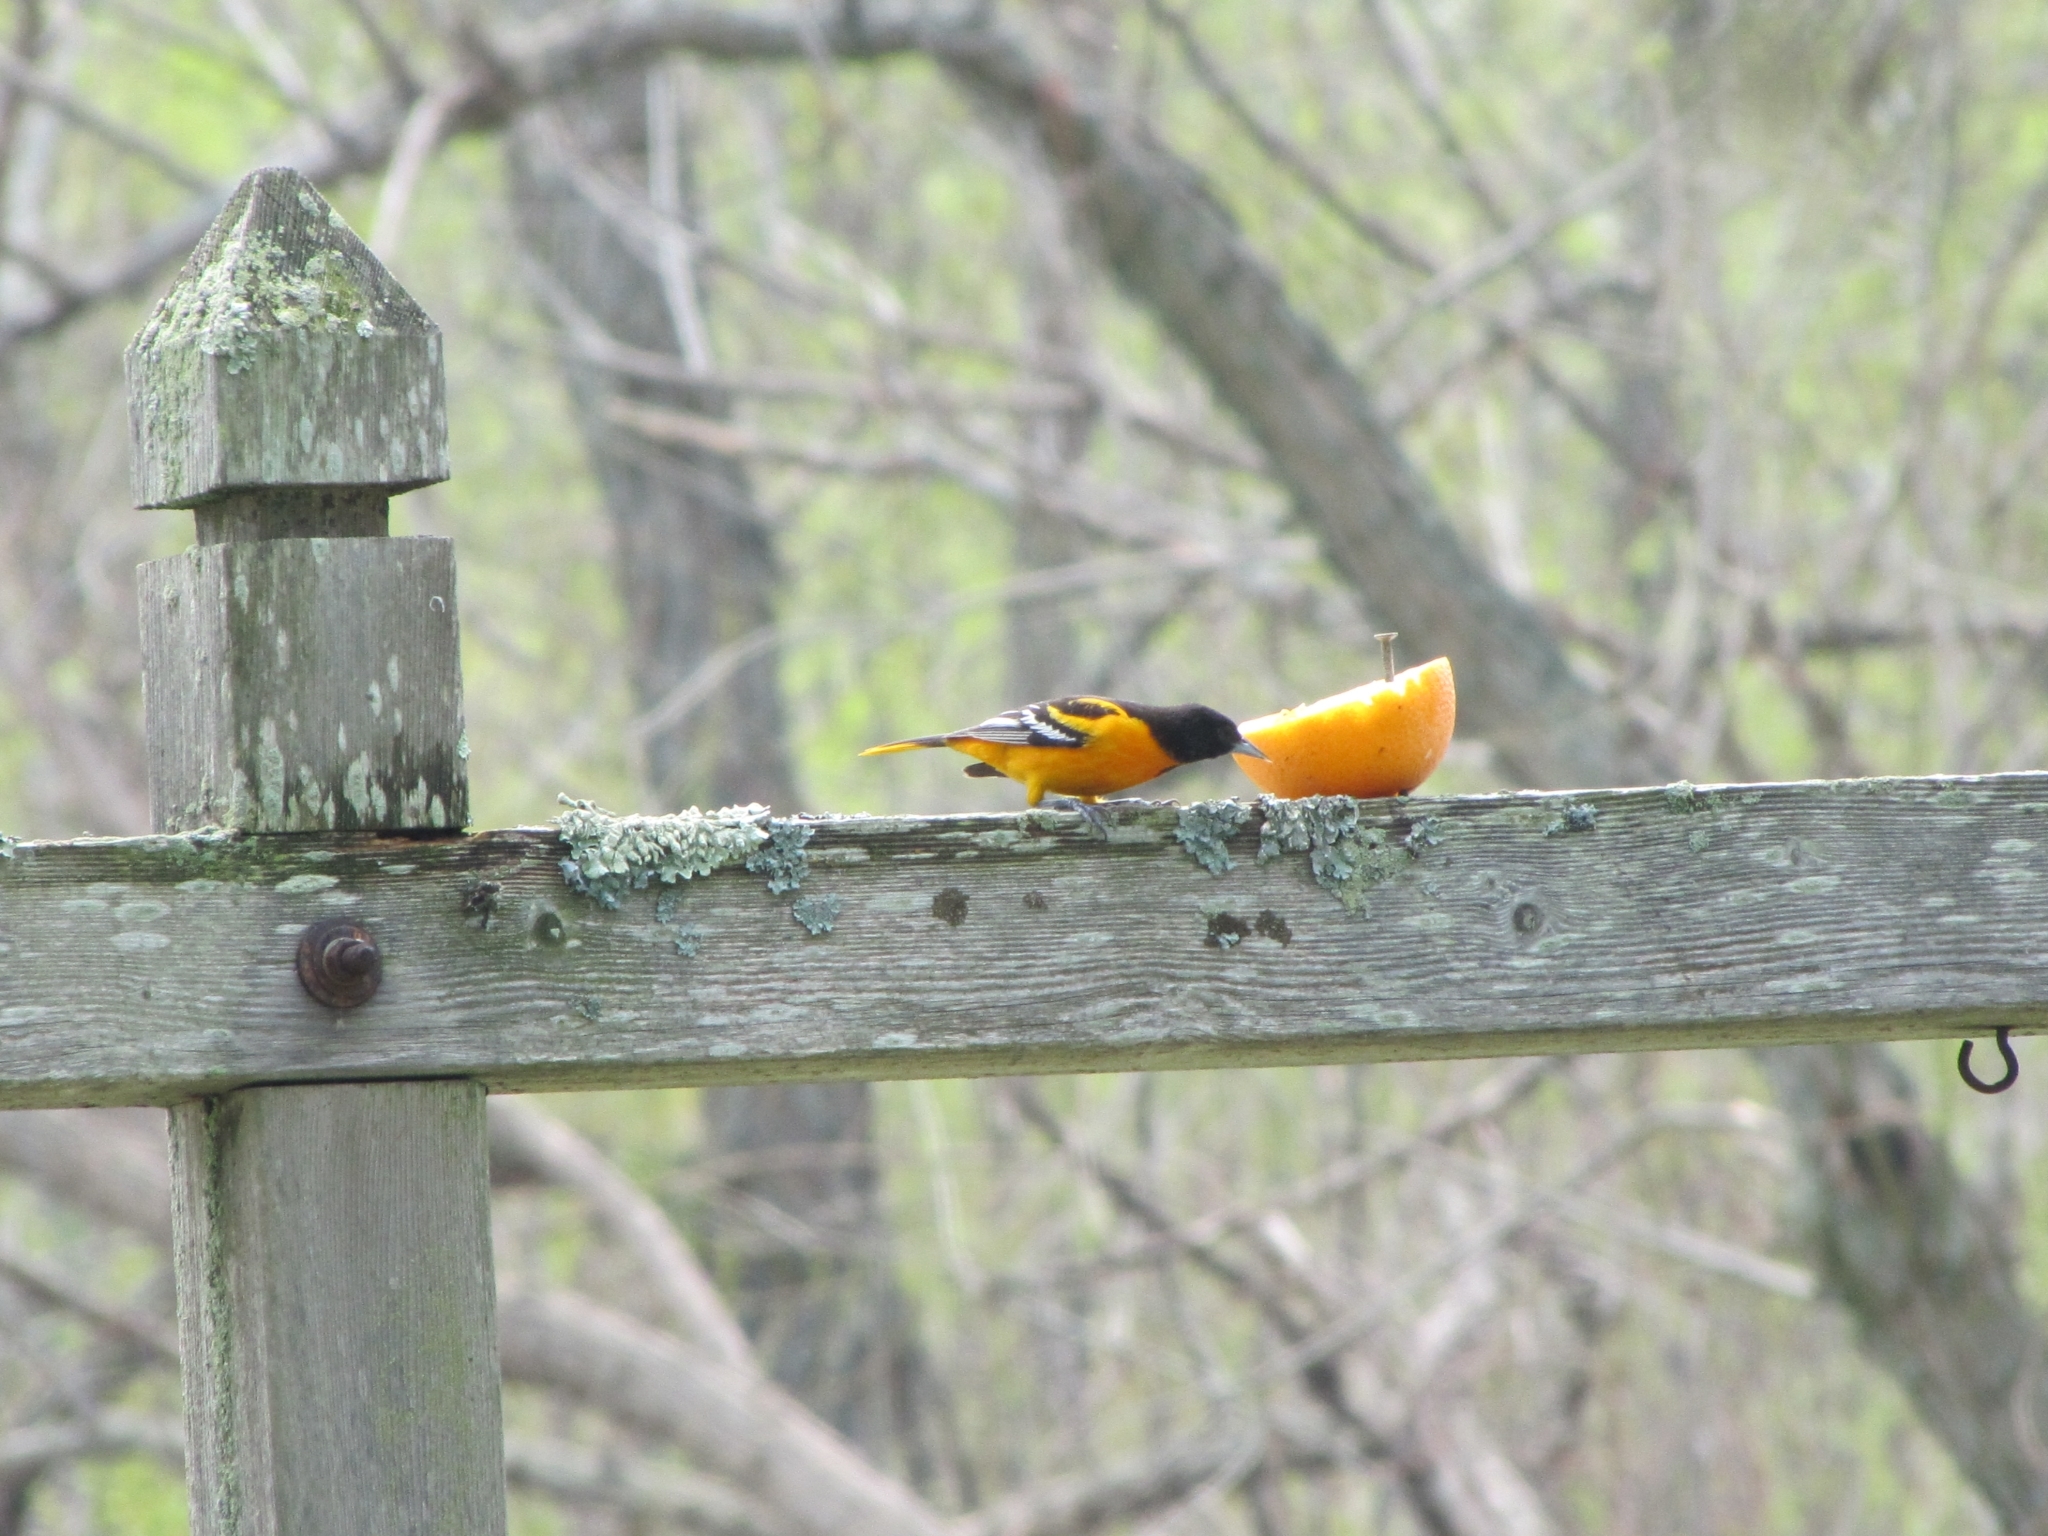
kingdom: Animalia
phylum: Chordata
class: Aves
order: Passeriformes
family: Icteridae
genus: Icterus
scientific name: Icterus galbula
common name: Baltimore oriole
